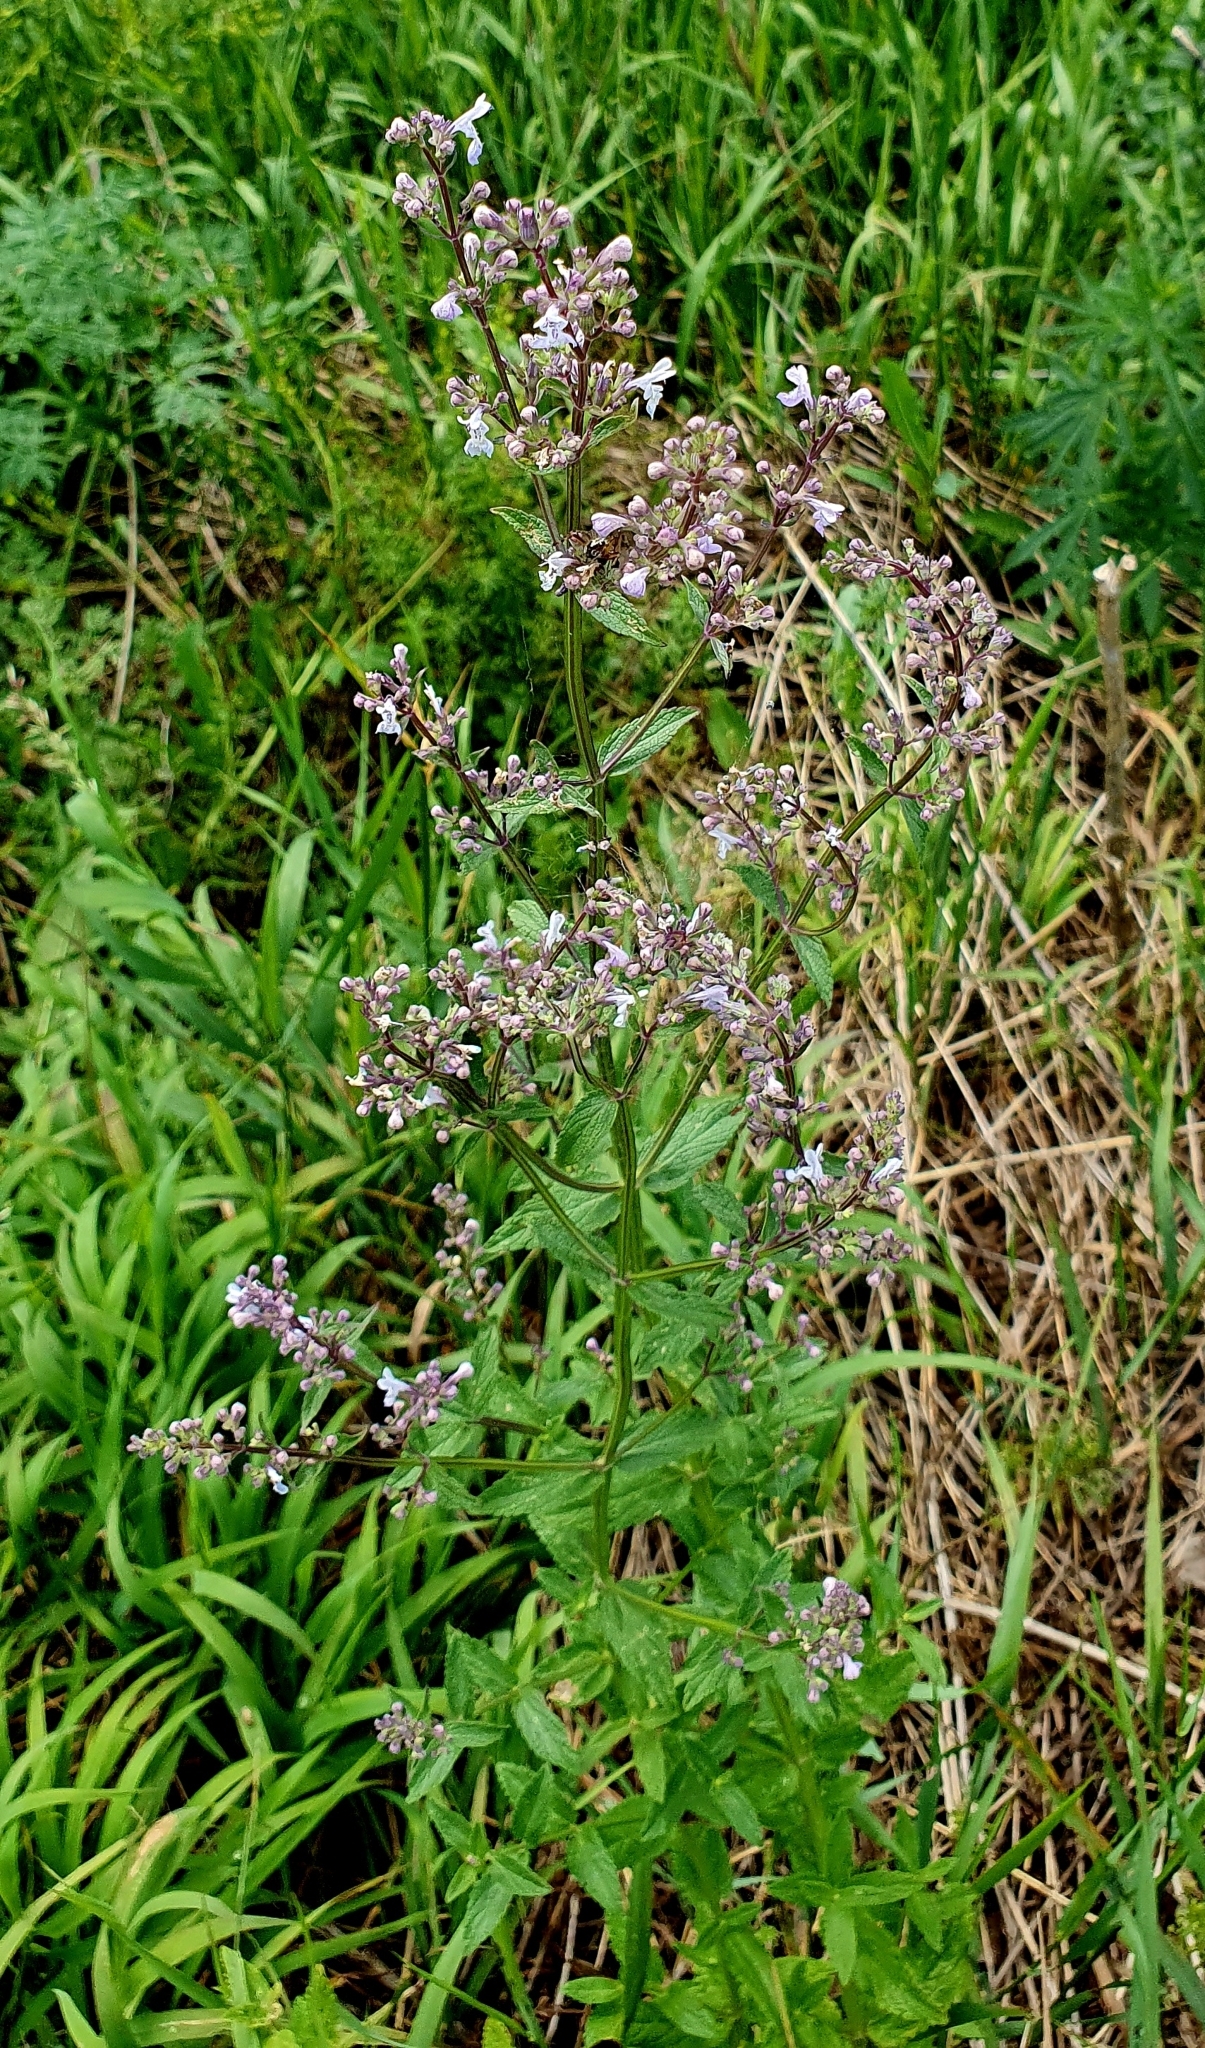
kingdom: Plantae
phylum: Tracheophyta
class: Magnoliopsida
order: Lamiales
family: Lamiaceae
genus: Nepeta
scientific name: Nepeta nuda
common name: Hairless catmint
